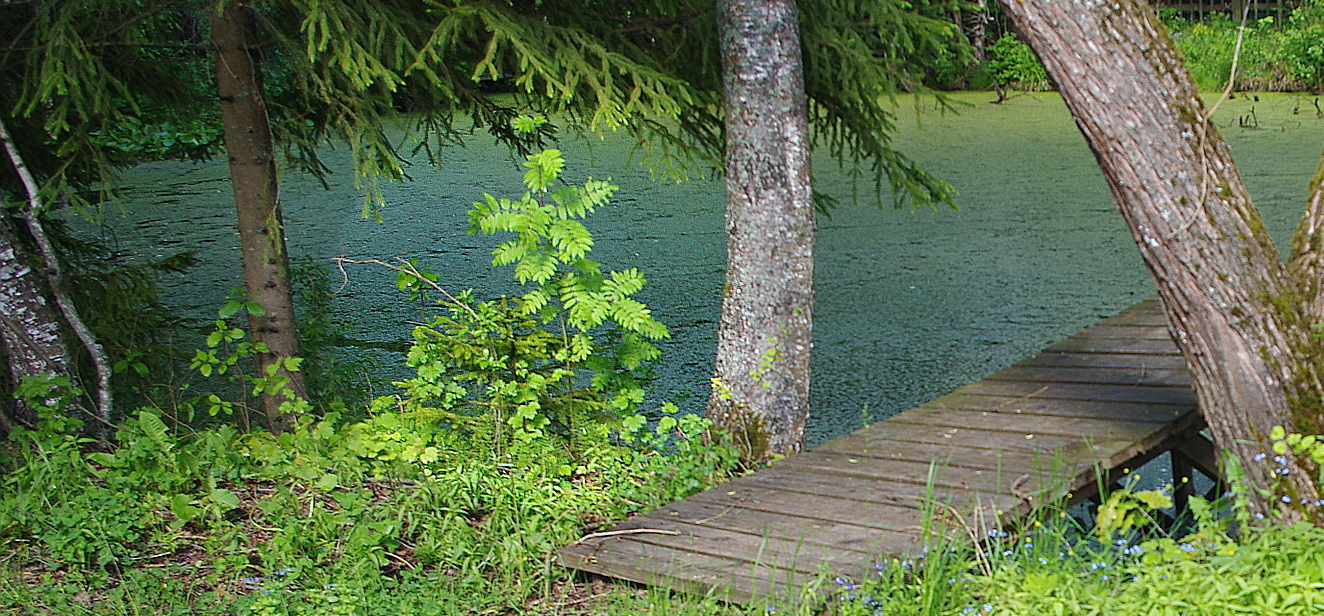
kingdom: Plantae
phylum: Tracheophyta
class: Magnoliopsida
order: Rosales
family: Rosaceae
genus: Sorbus
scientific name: Sorbus aucuparia
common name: Rowan
